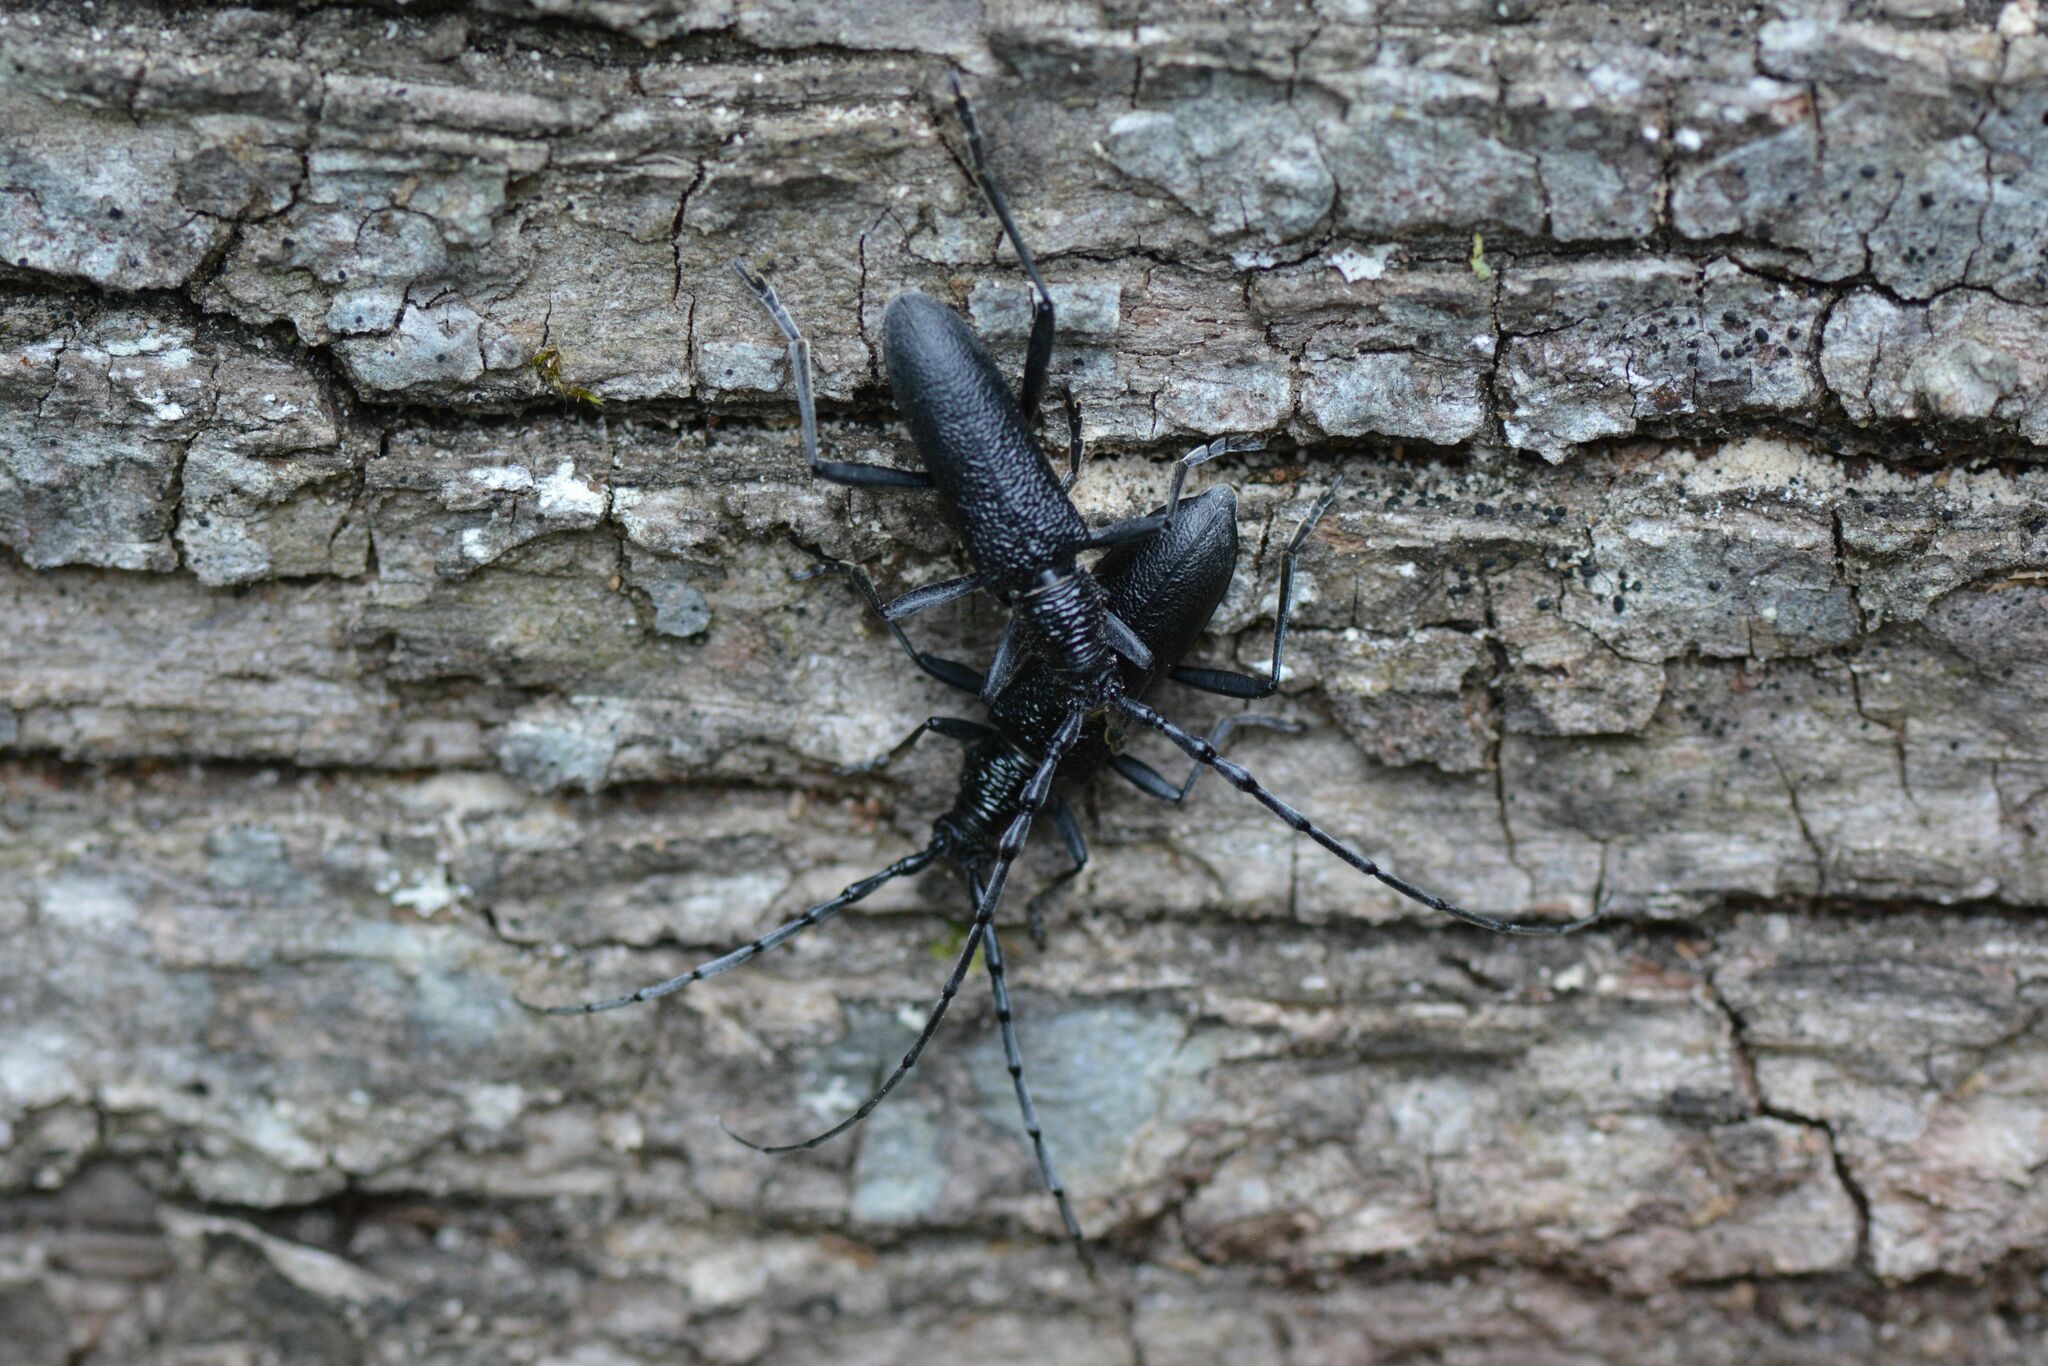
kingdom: Animalia
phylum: Arthropoda
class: Insecta
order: Coleoptera
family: Cerambycidae
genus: Cerambyx
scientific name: Cerambyx scopolii
